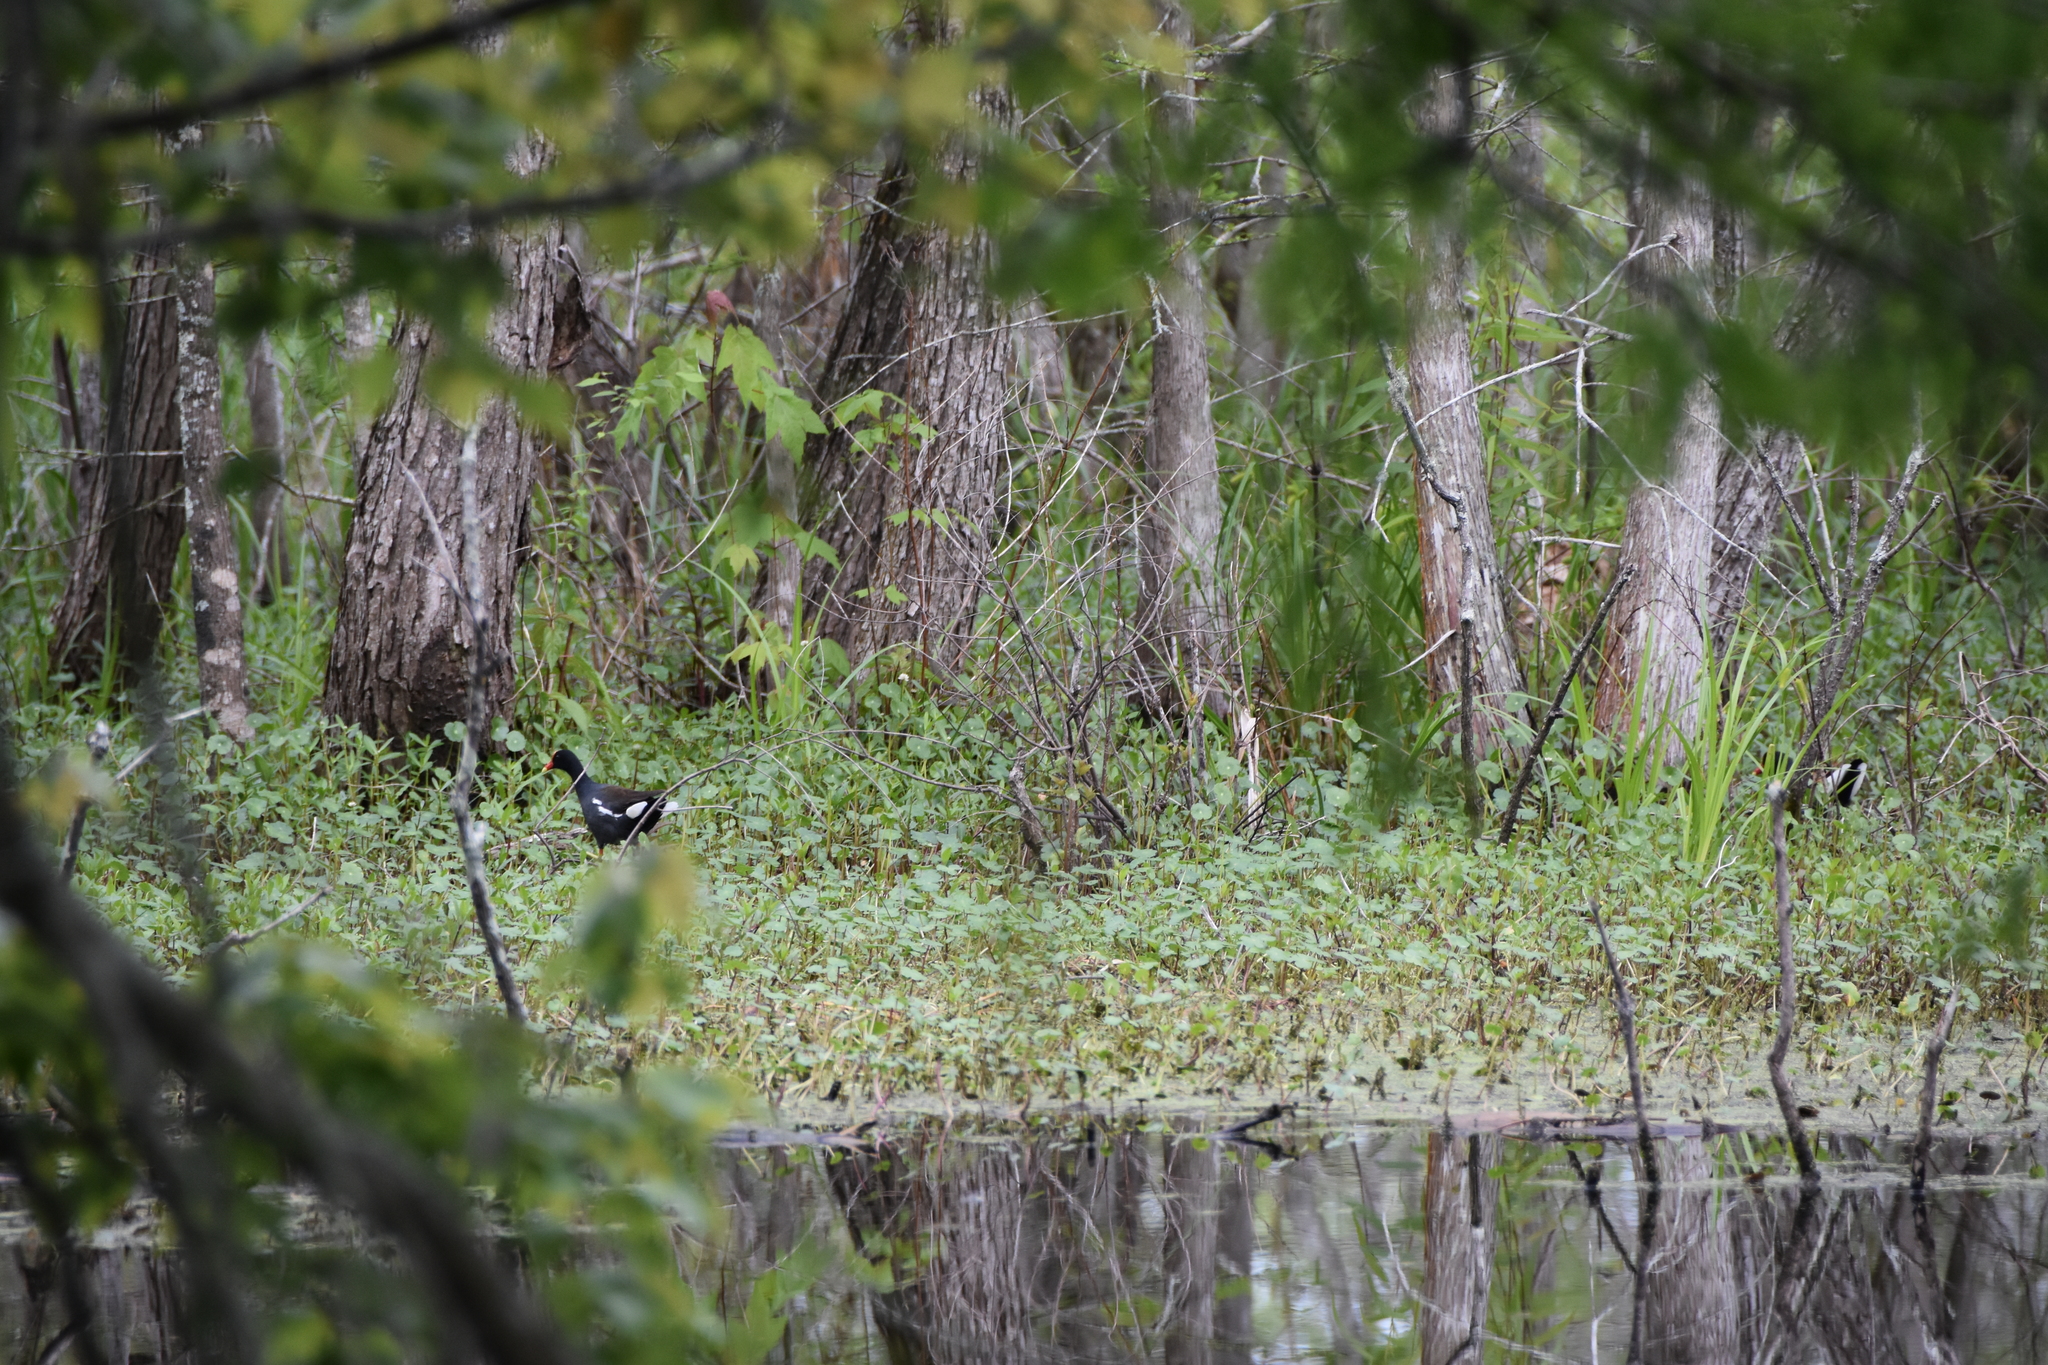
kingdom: Animalia
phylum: Chordata
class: Aves
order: Gruiformes
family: Rallidae
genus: Gallinula
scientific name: Gallinula chloropus
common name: Common moorhen
